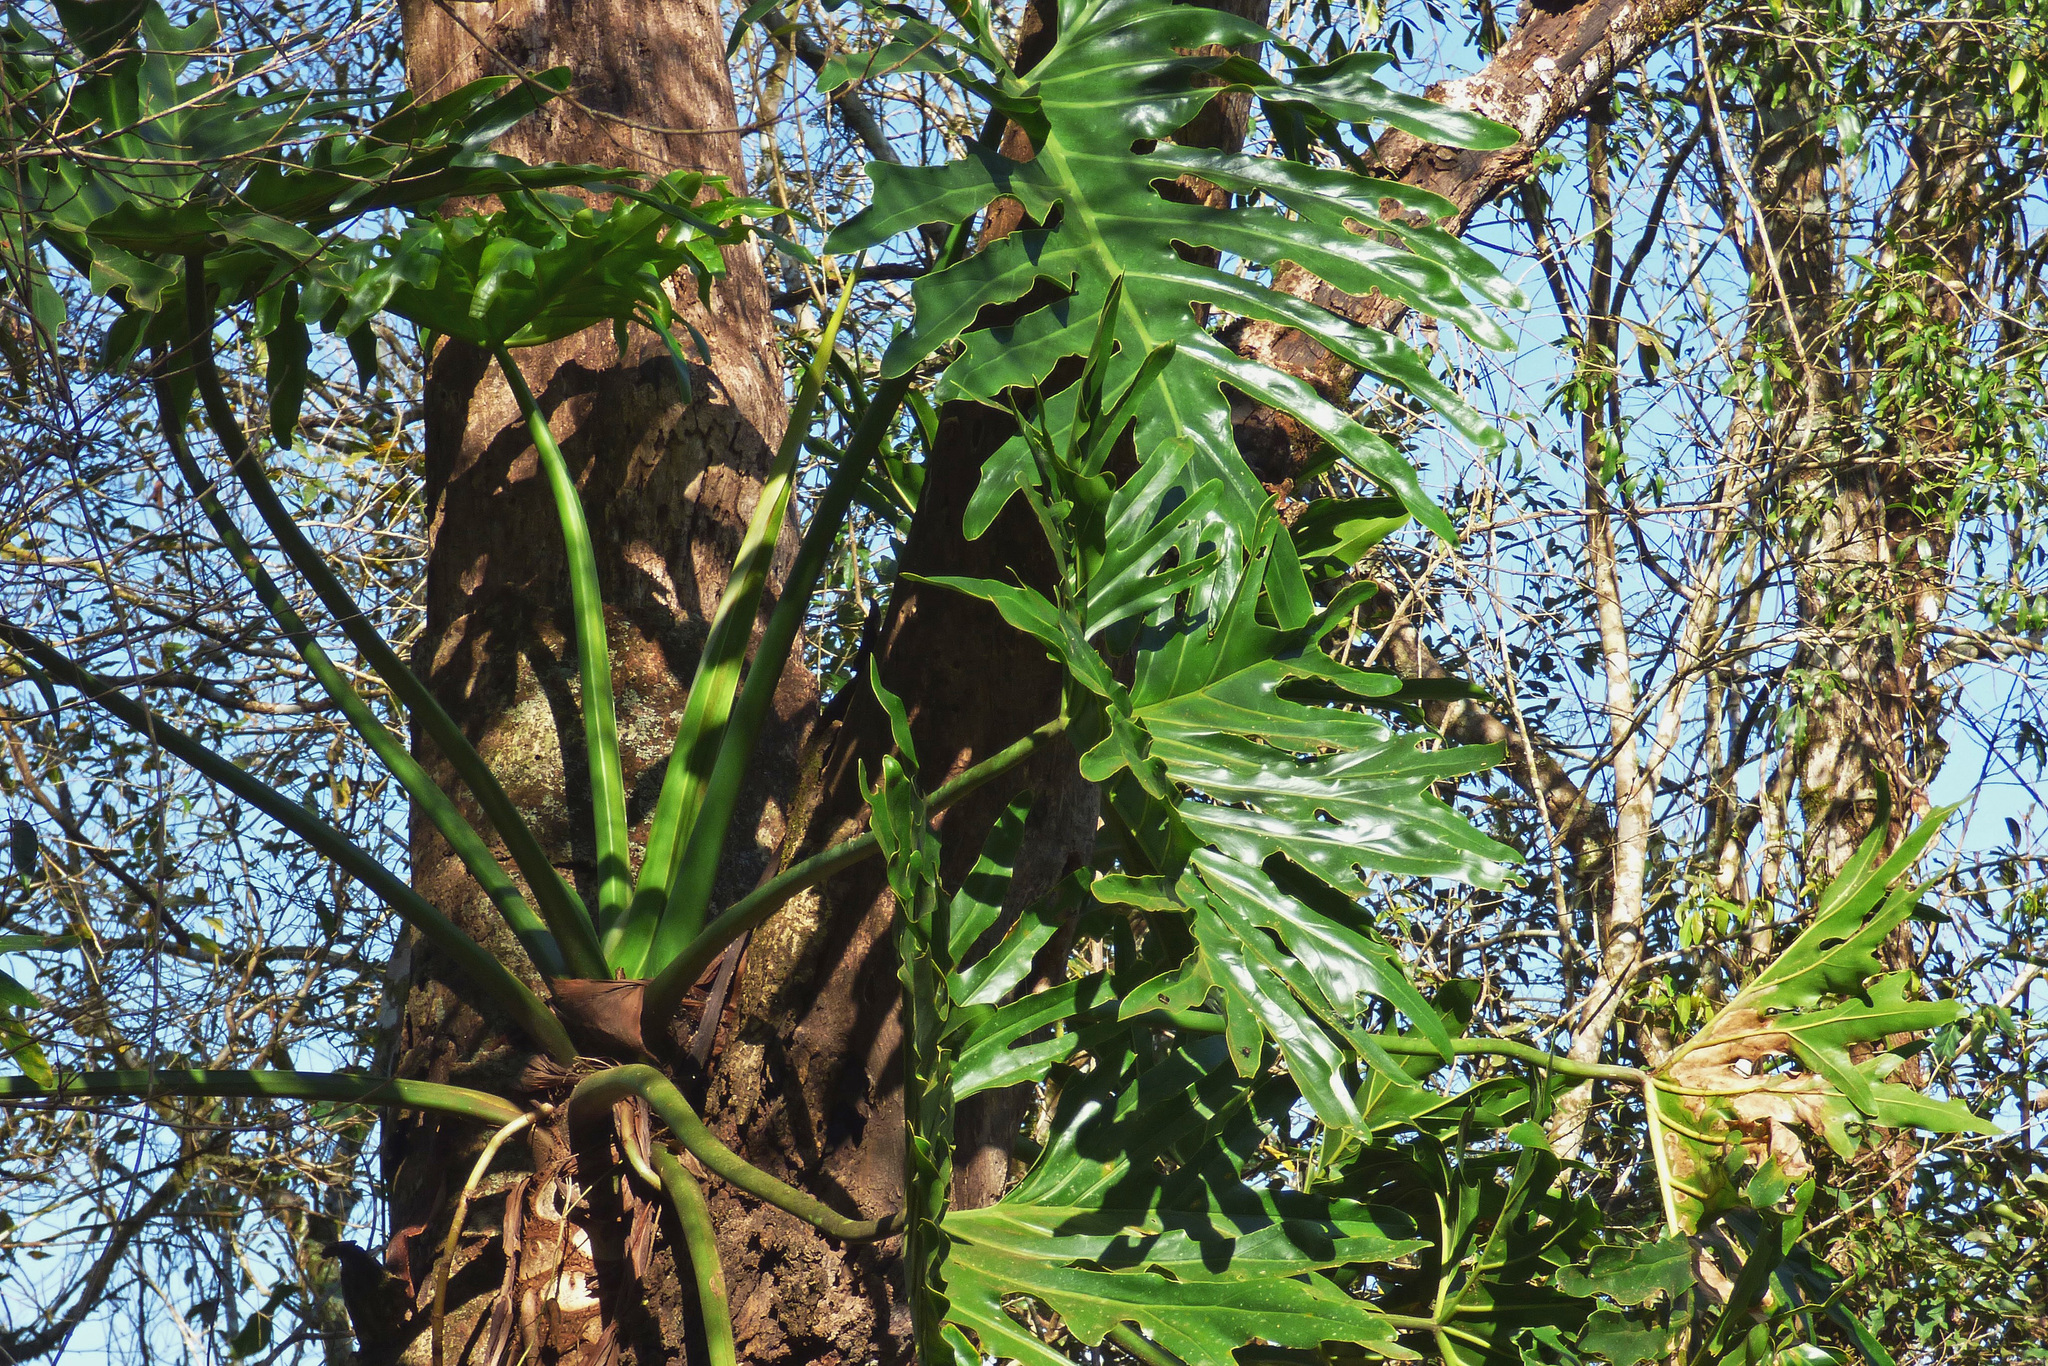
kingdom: Plantae
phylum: Tracheophyta
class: Liliopsida
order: Alismatales
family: Araceae
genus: Thaumatophyllum
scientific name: Thaumatophyllum bipinnatifidum
